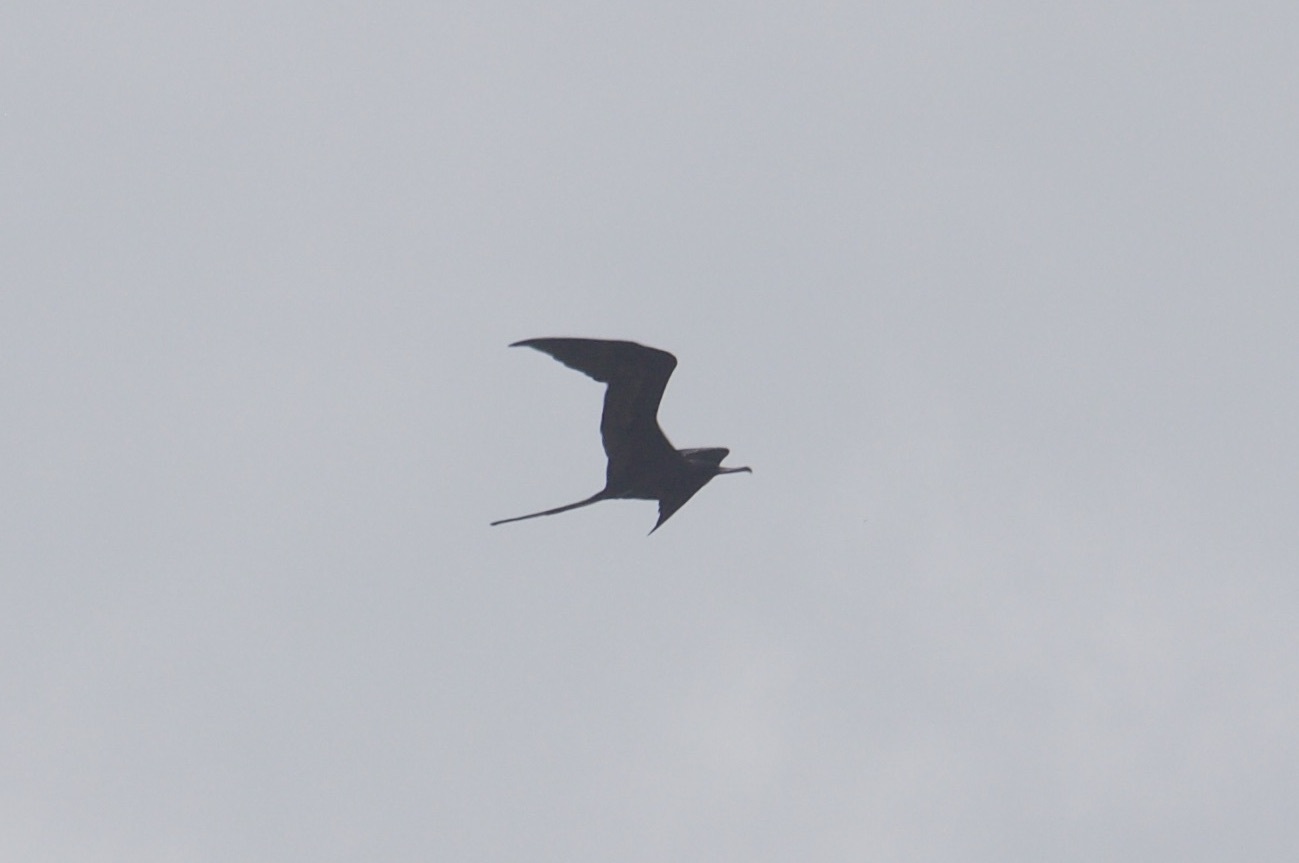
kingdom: Animalia
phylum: Chordata
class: Aves
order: Suliformes
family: Fregatidae
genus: Fregata
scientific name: Fregata magnificens
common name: Magnificent frigatebird
